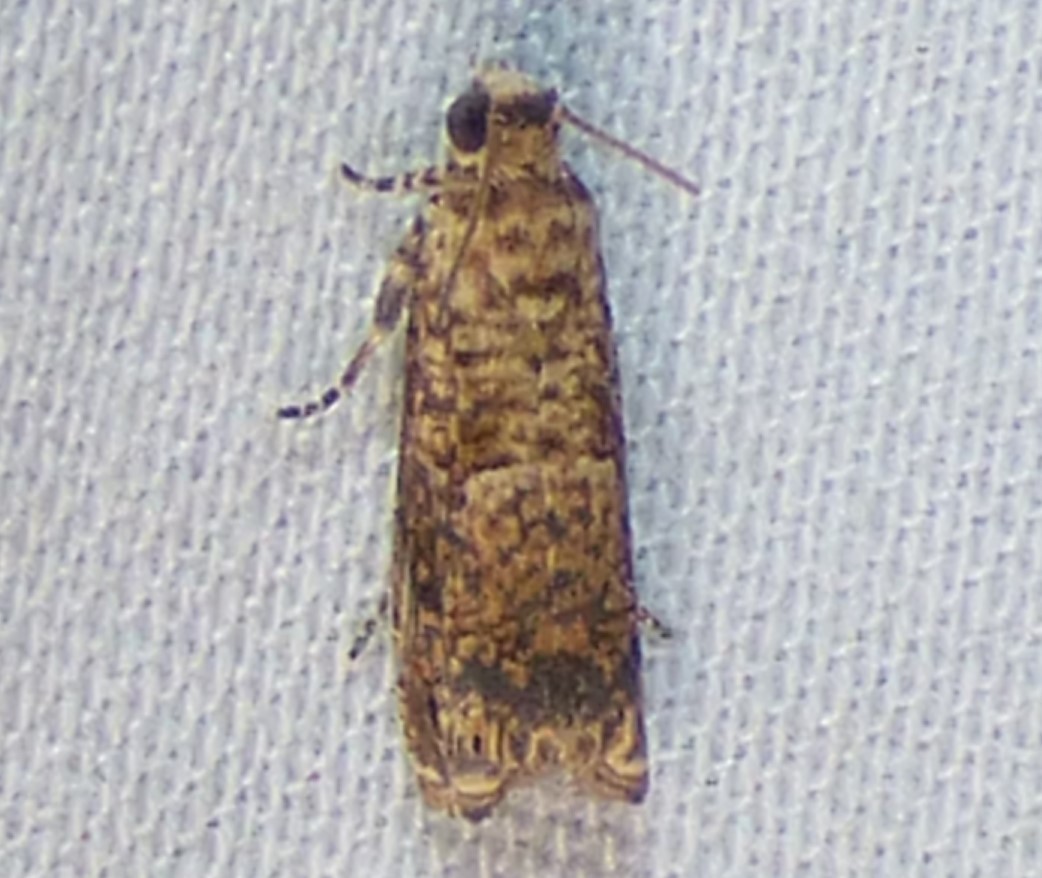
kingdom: Animalia
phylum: Arthropoda
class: Insecta
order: Lepidoptera
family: Tortricidae
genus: Episimus
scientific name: Episimus argutana
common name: Sumac leaftier moth
